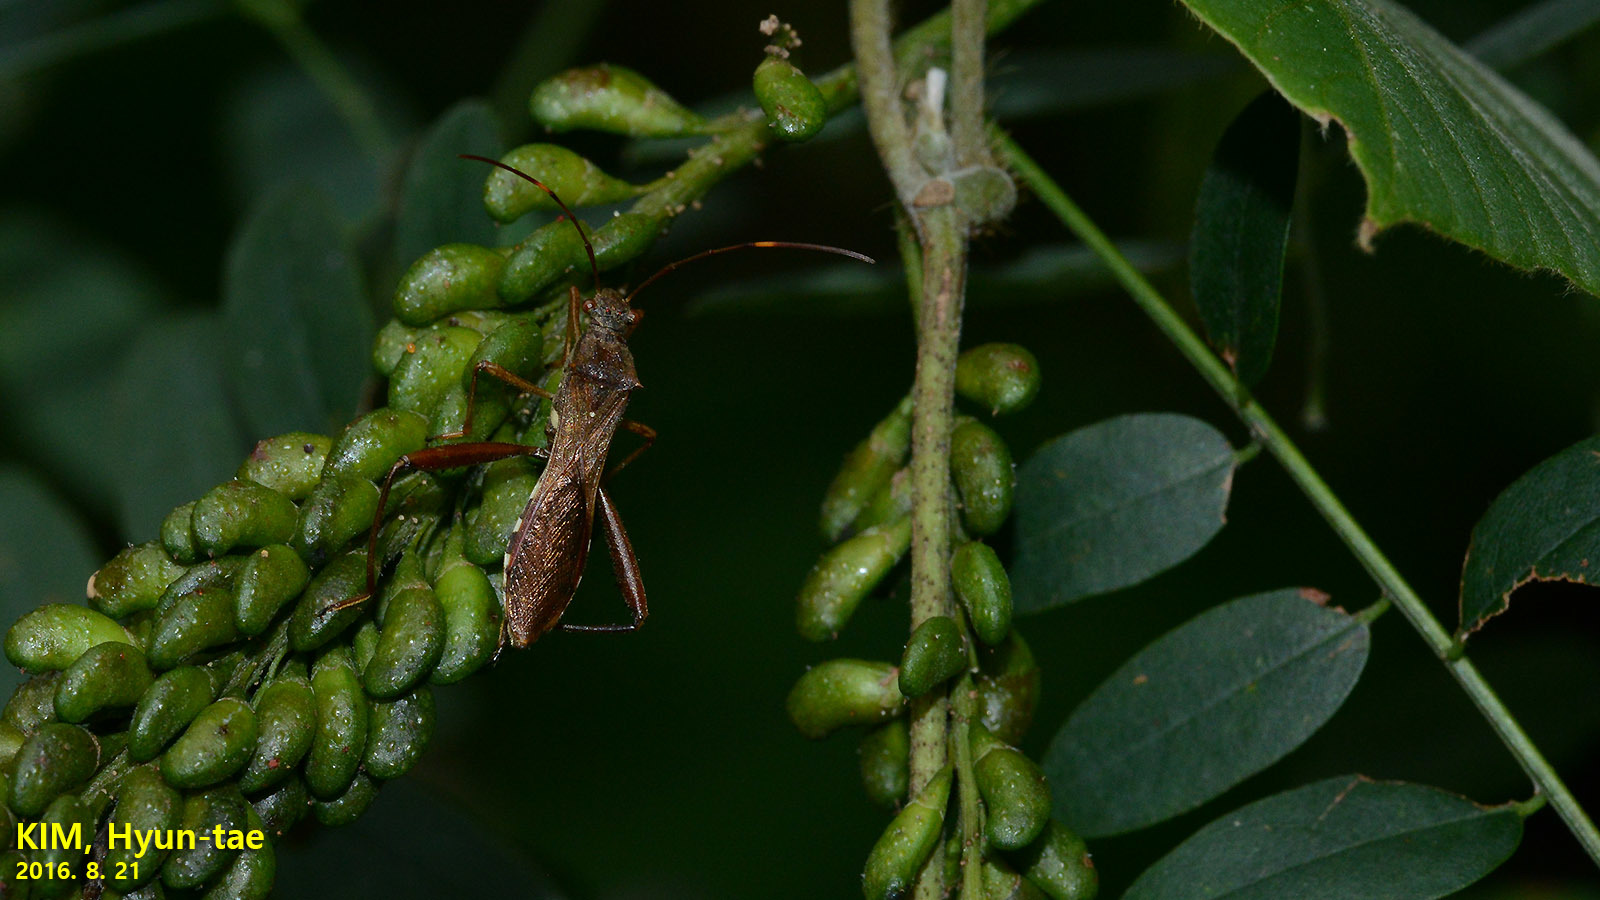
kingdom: Animalia
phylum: Arthropoda
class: Insecta
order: Hemiptera
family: Alydidae
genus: Riptortus
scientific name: Riptortus pedestris
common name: Bean bug
